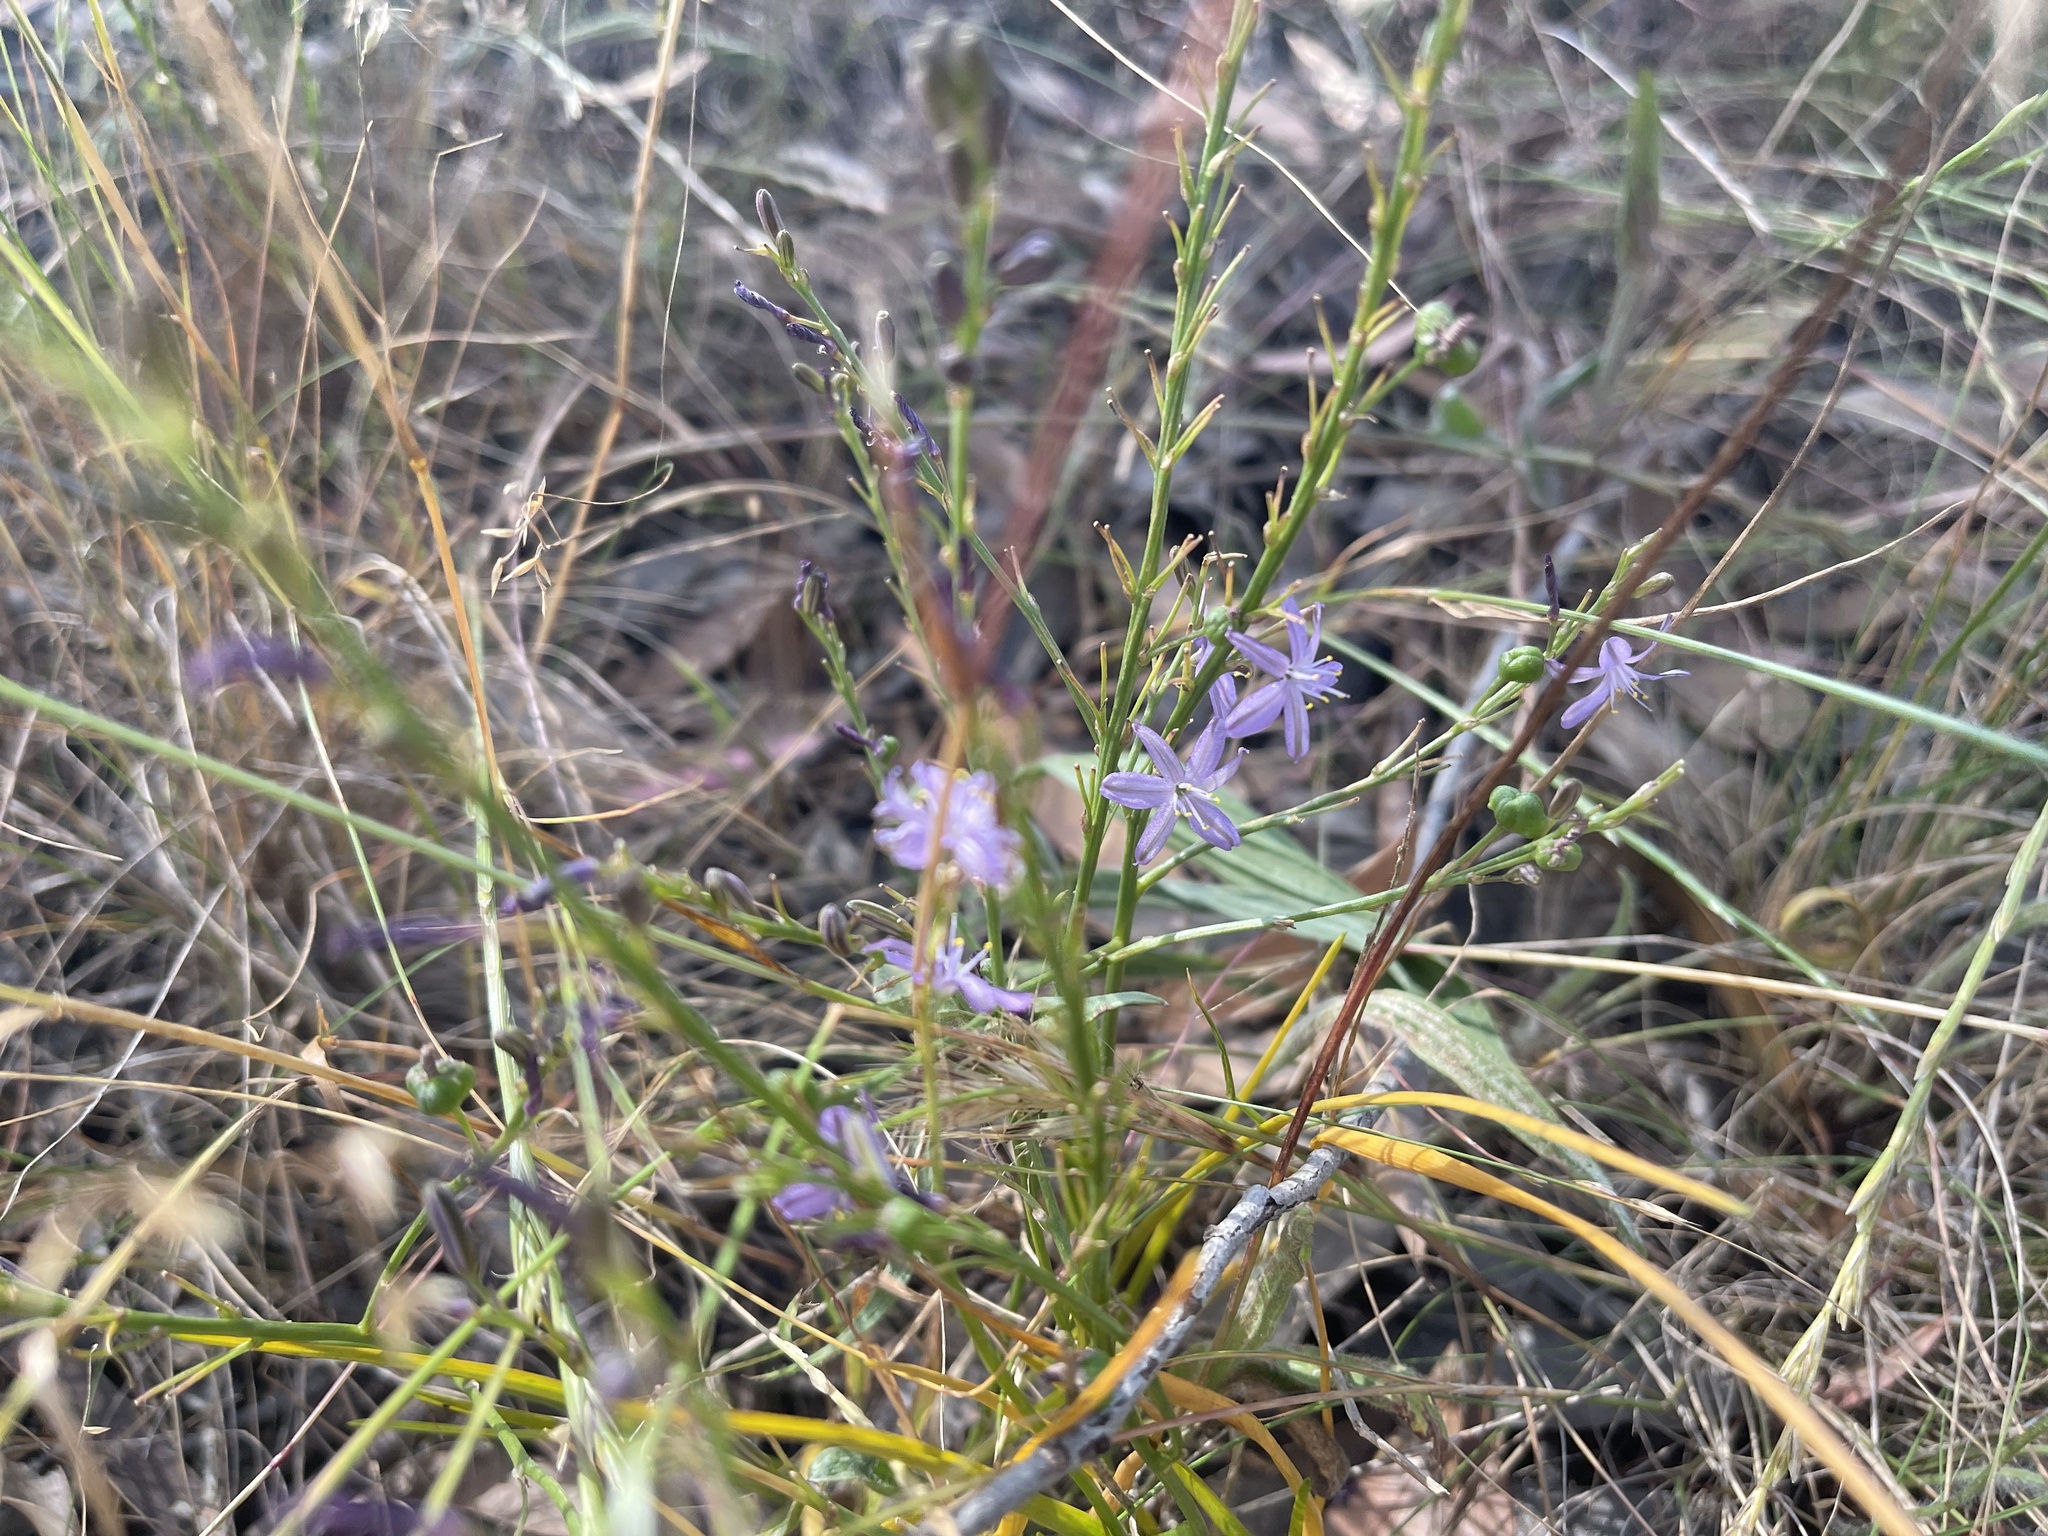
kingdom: Plantae
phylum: Tracheophyta
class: Liliopsida
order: Asparagales
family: Asphodelaceae
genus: Caesia
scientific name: Caesia calliantha
